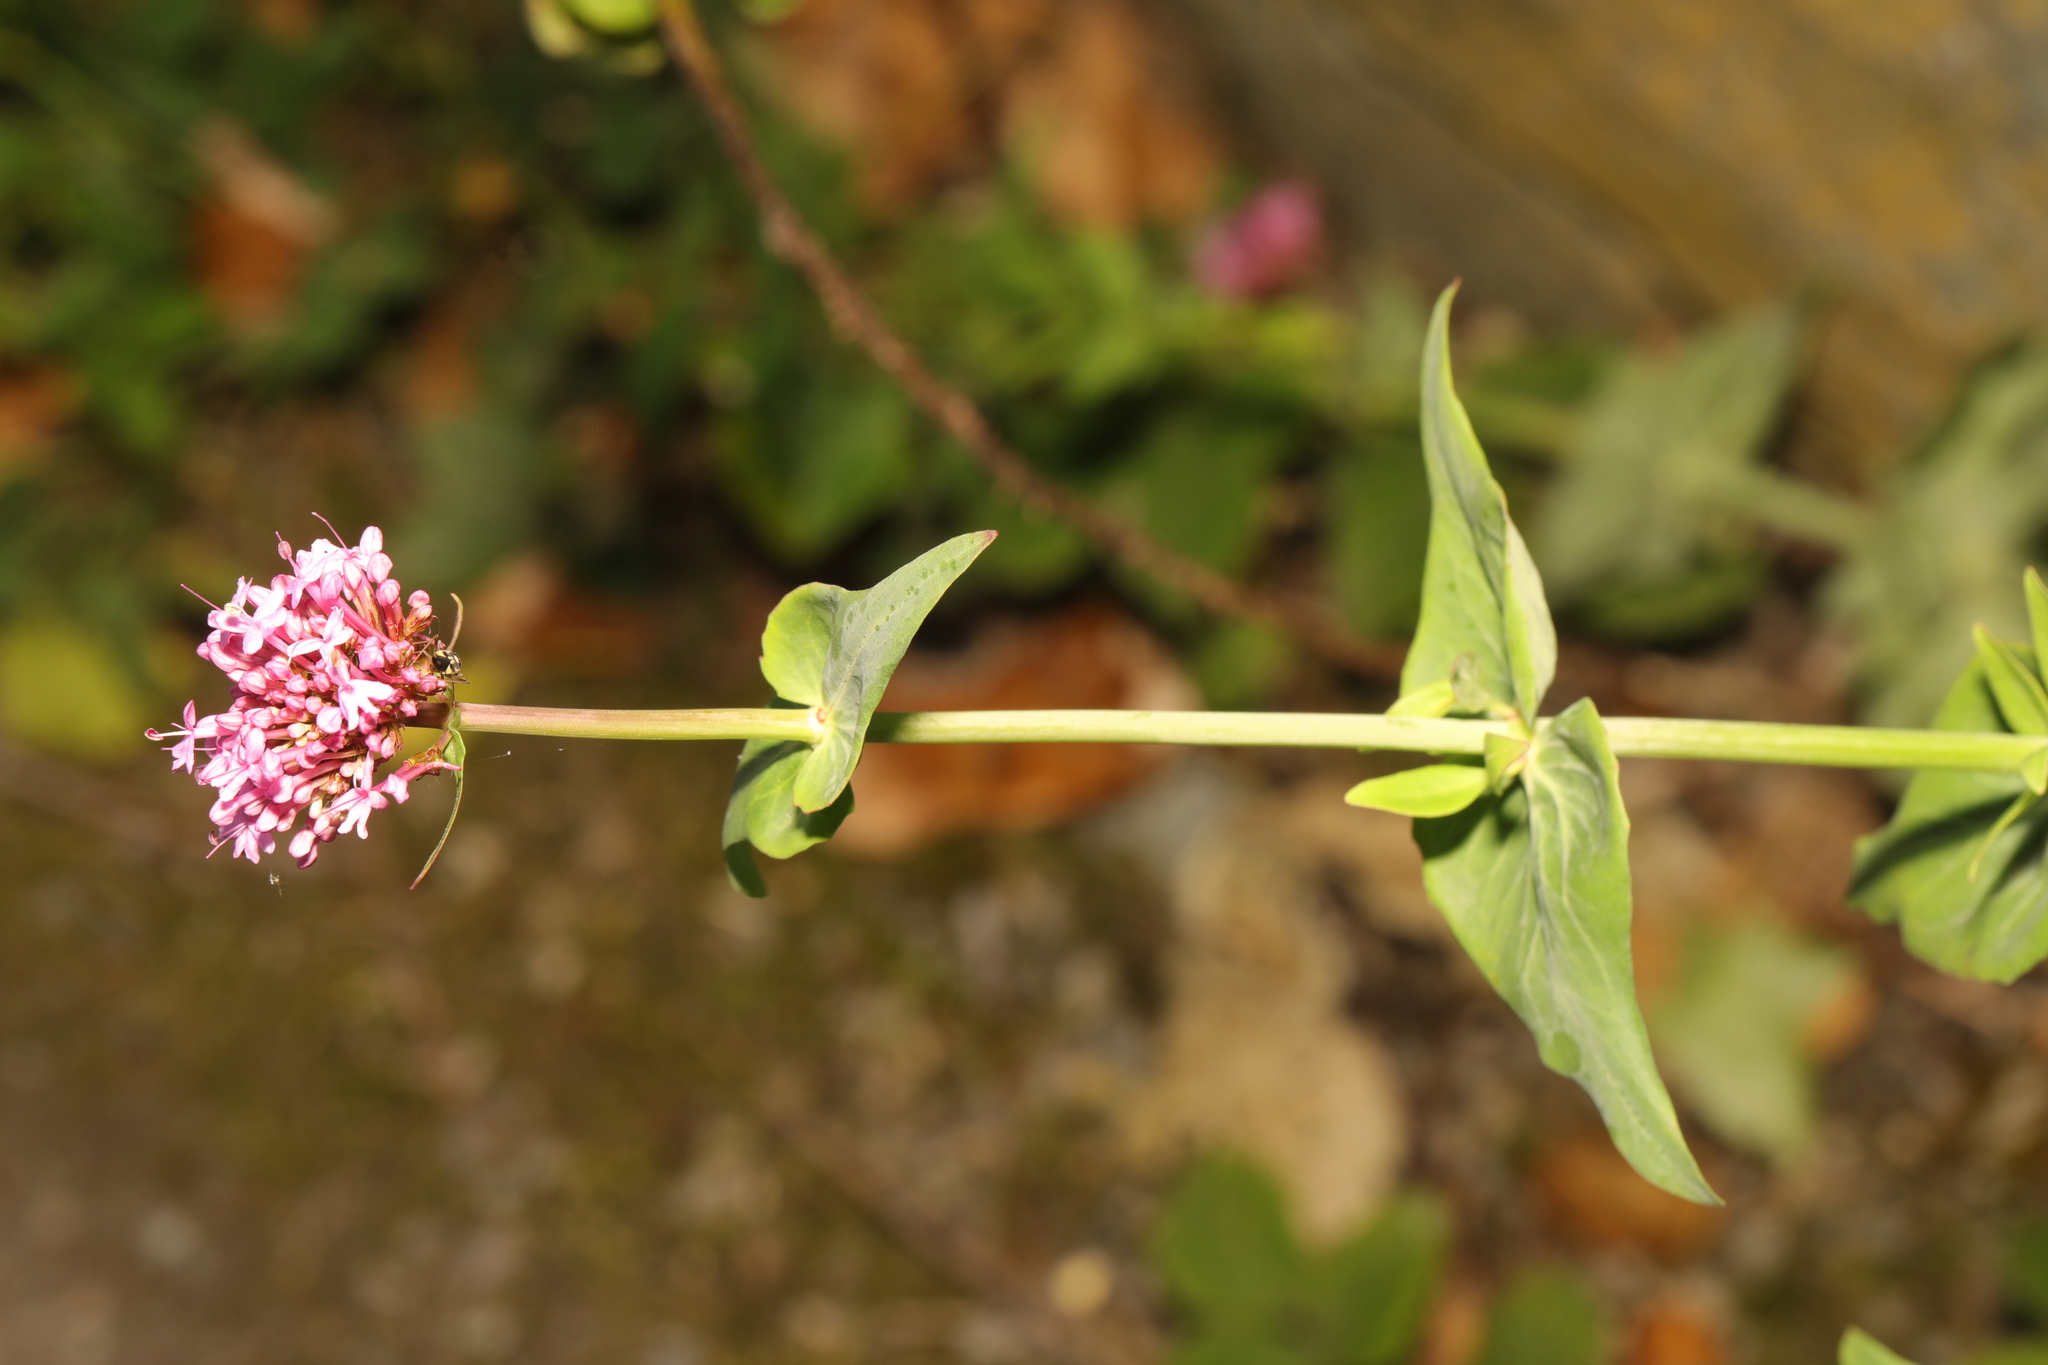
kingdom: Plantae
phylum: Tracheophyta
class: Magnoliopsida
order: Dipsacales
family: Caprifoliaceae
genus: Centranthus
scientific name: Centranthus ruber
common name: Red valerian
